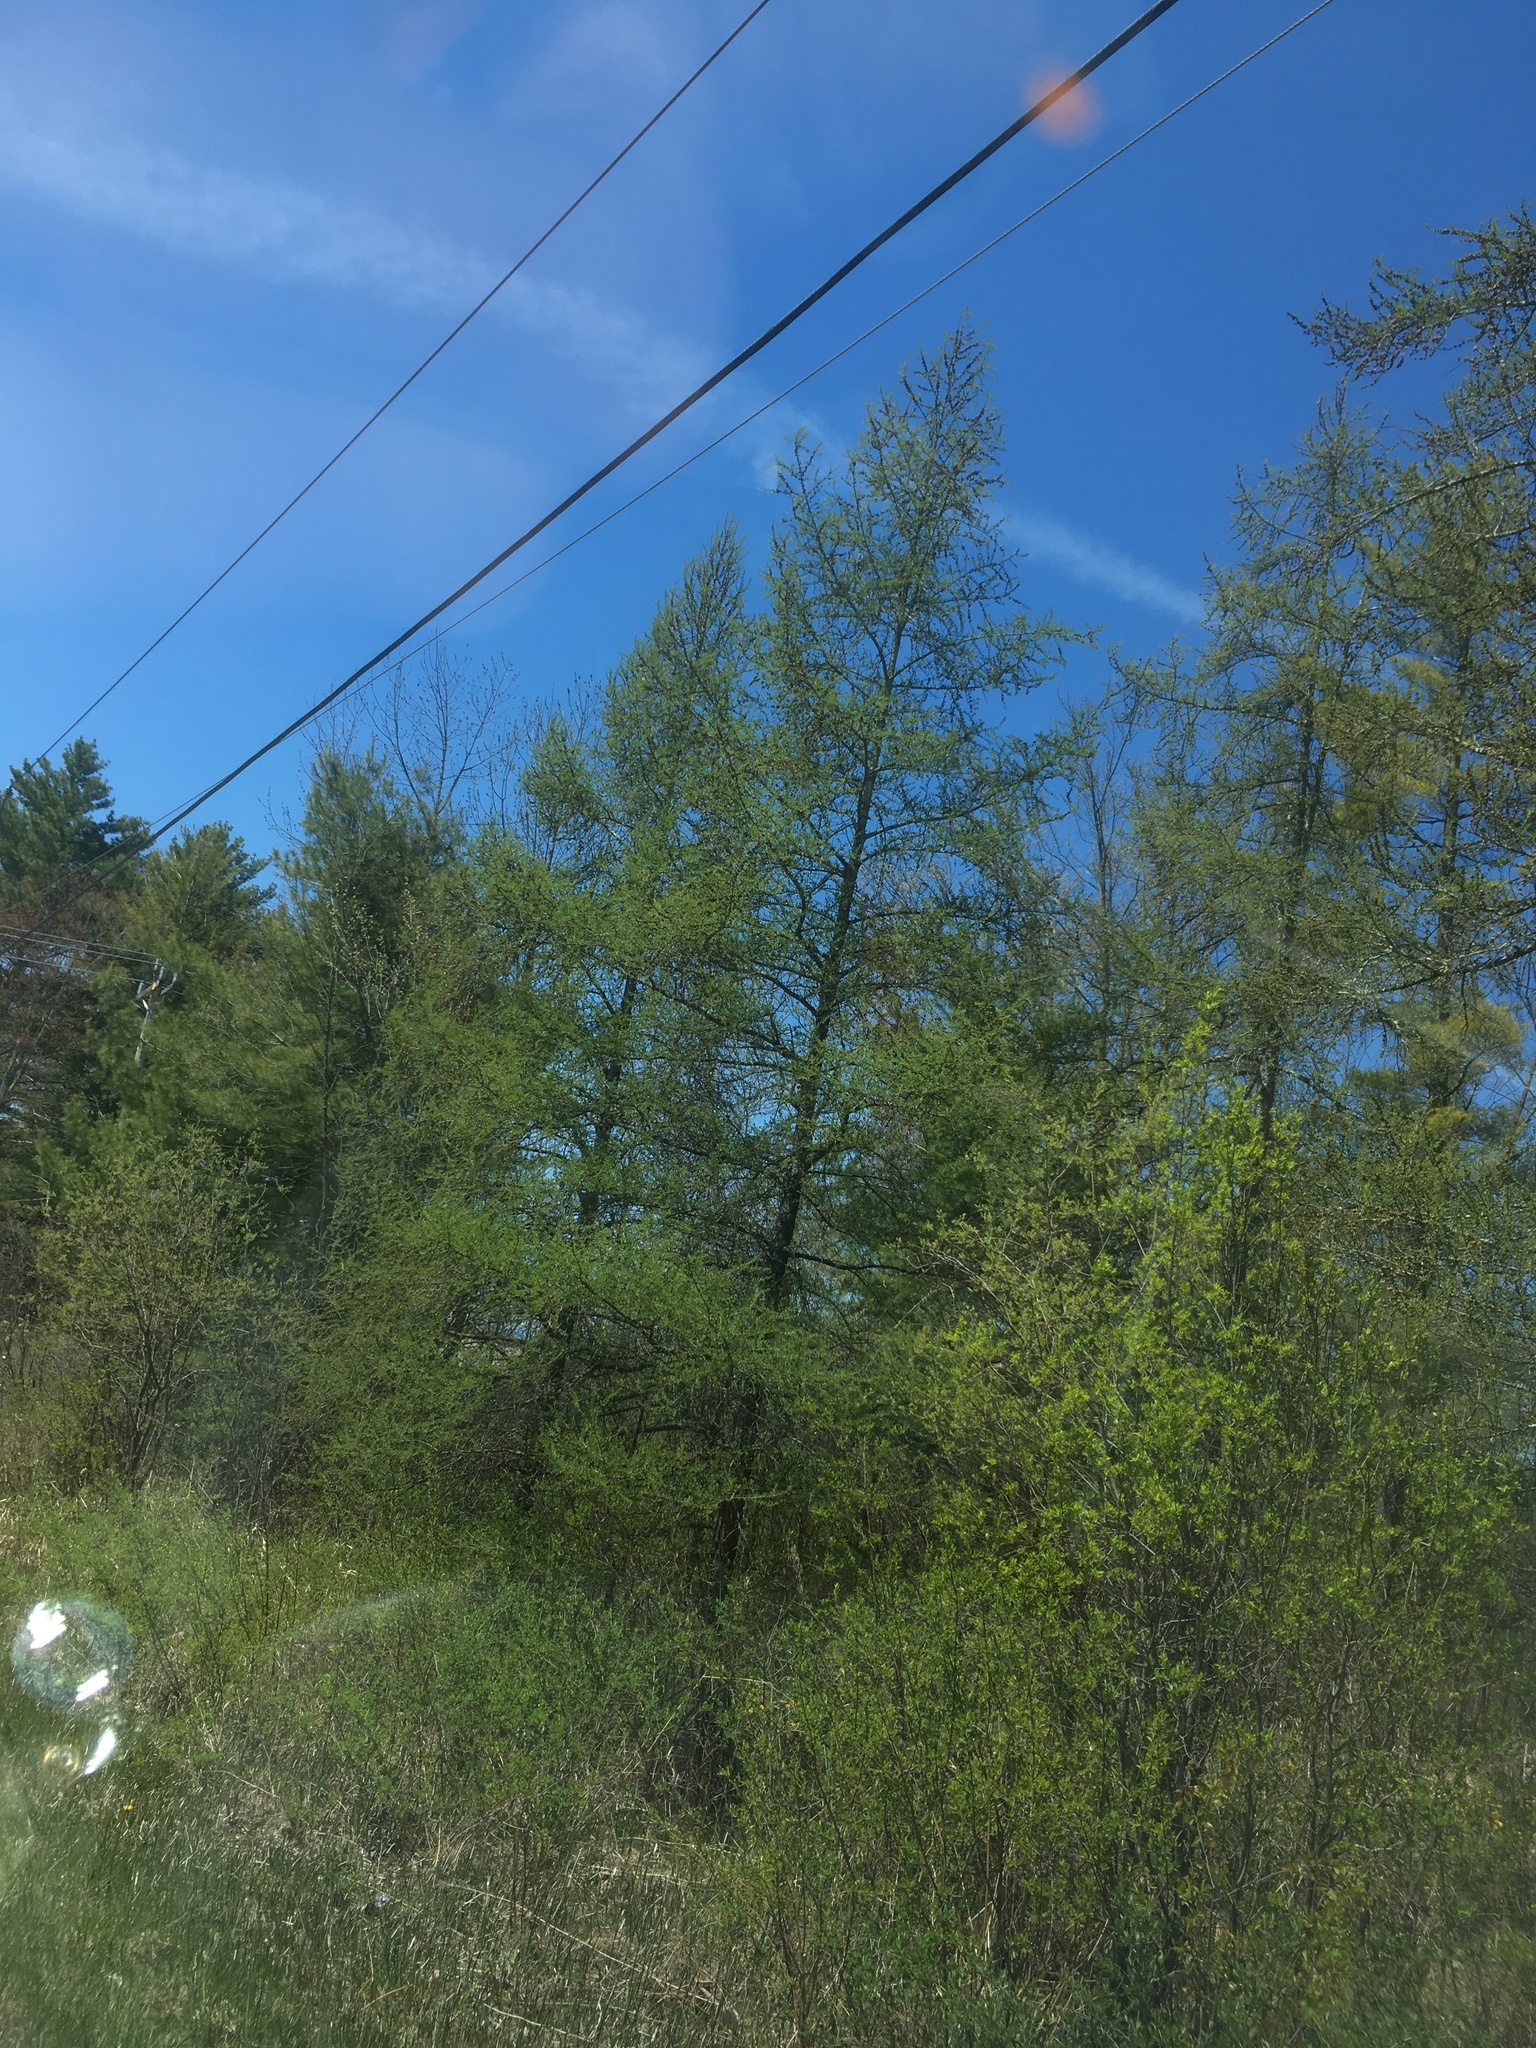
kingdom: Plantae
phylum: Tracheophyta
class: Pinopsida
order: Pinales
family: Pinaceae
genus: Larix
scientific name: Larix laricina
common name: American larch
